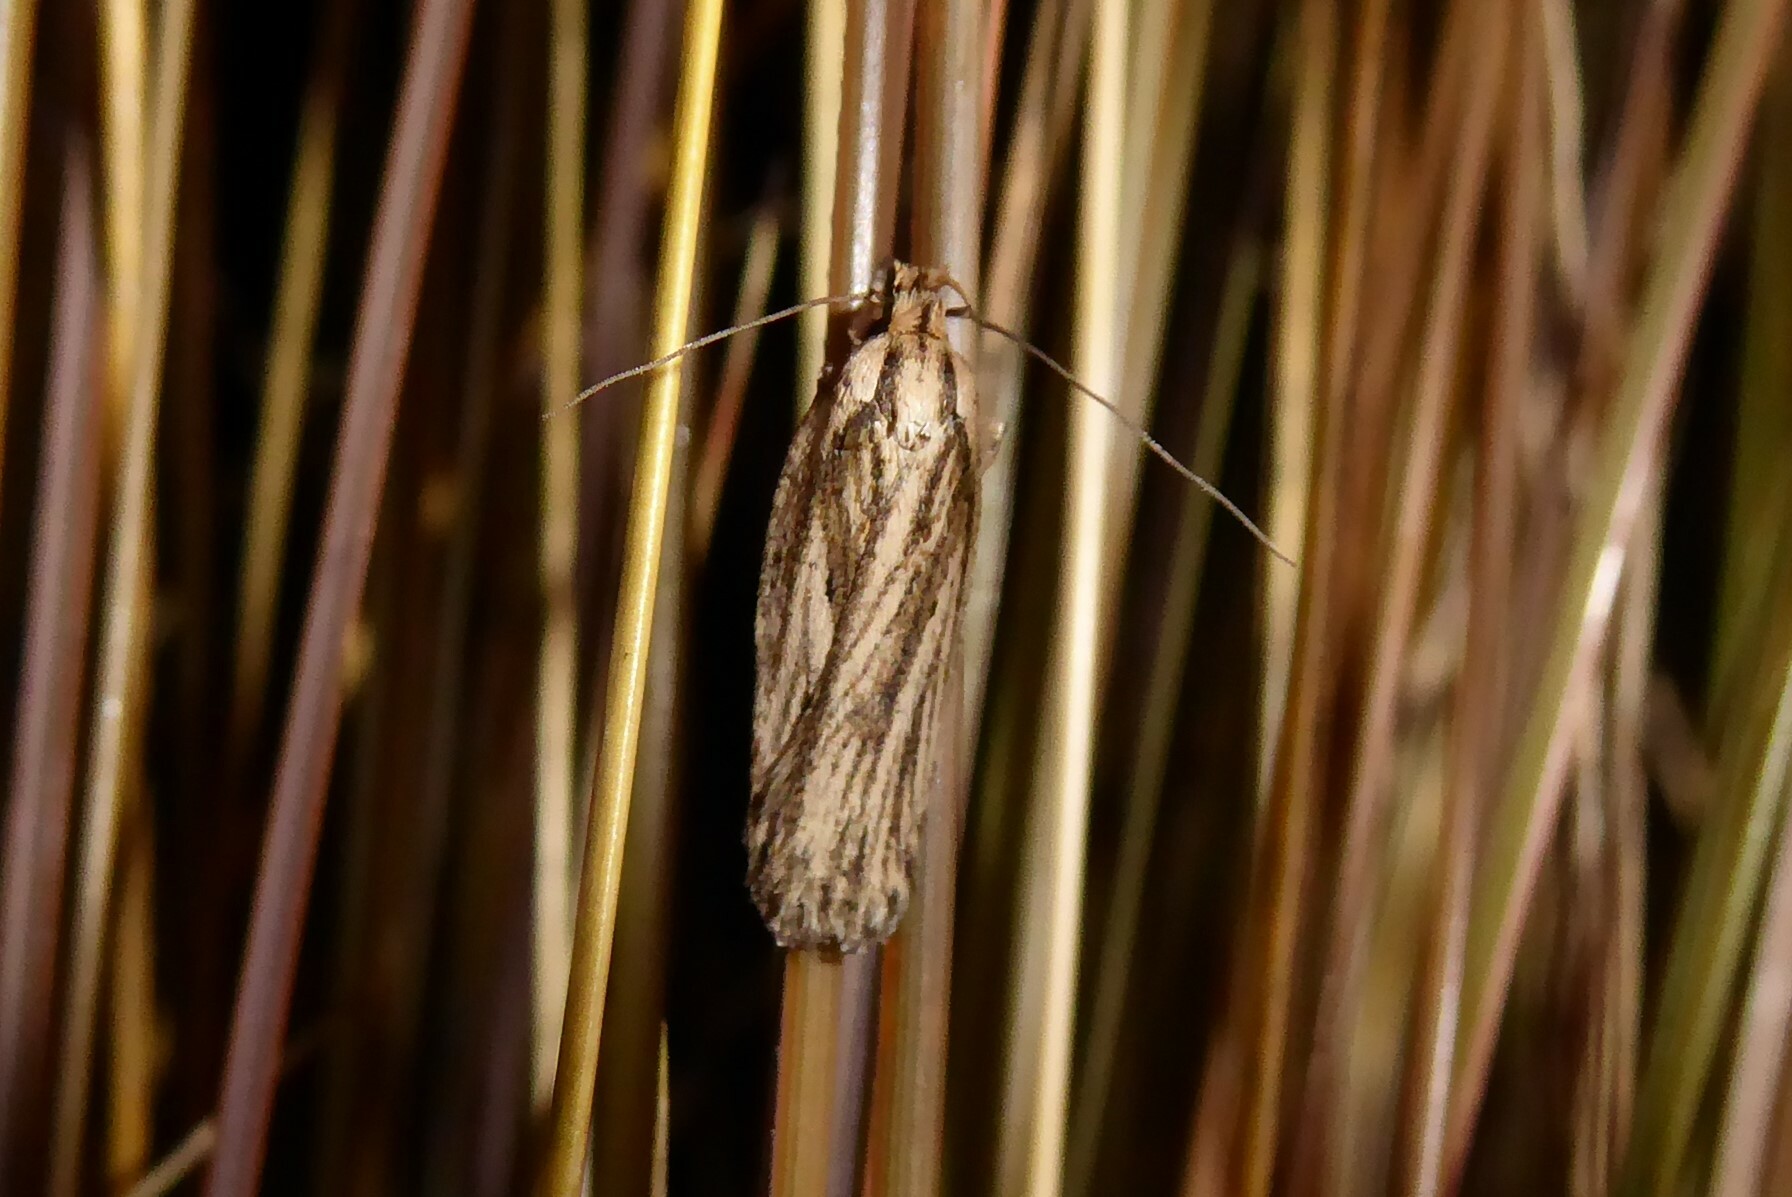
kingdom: Animalia
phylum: Arthropoda
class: Insecta
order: Lepidoptera
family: Depressariidae
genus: Agonopterix
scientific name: Agonopterix
